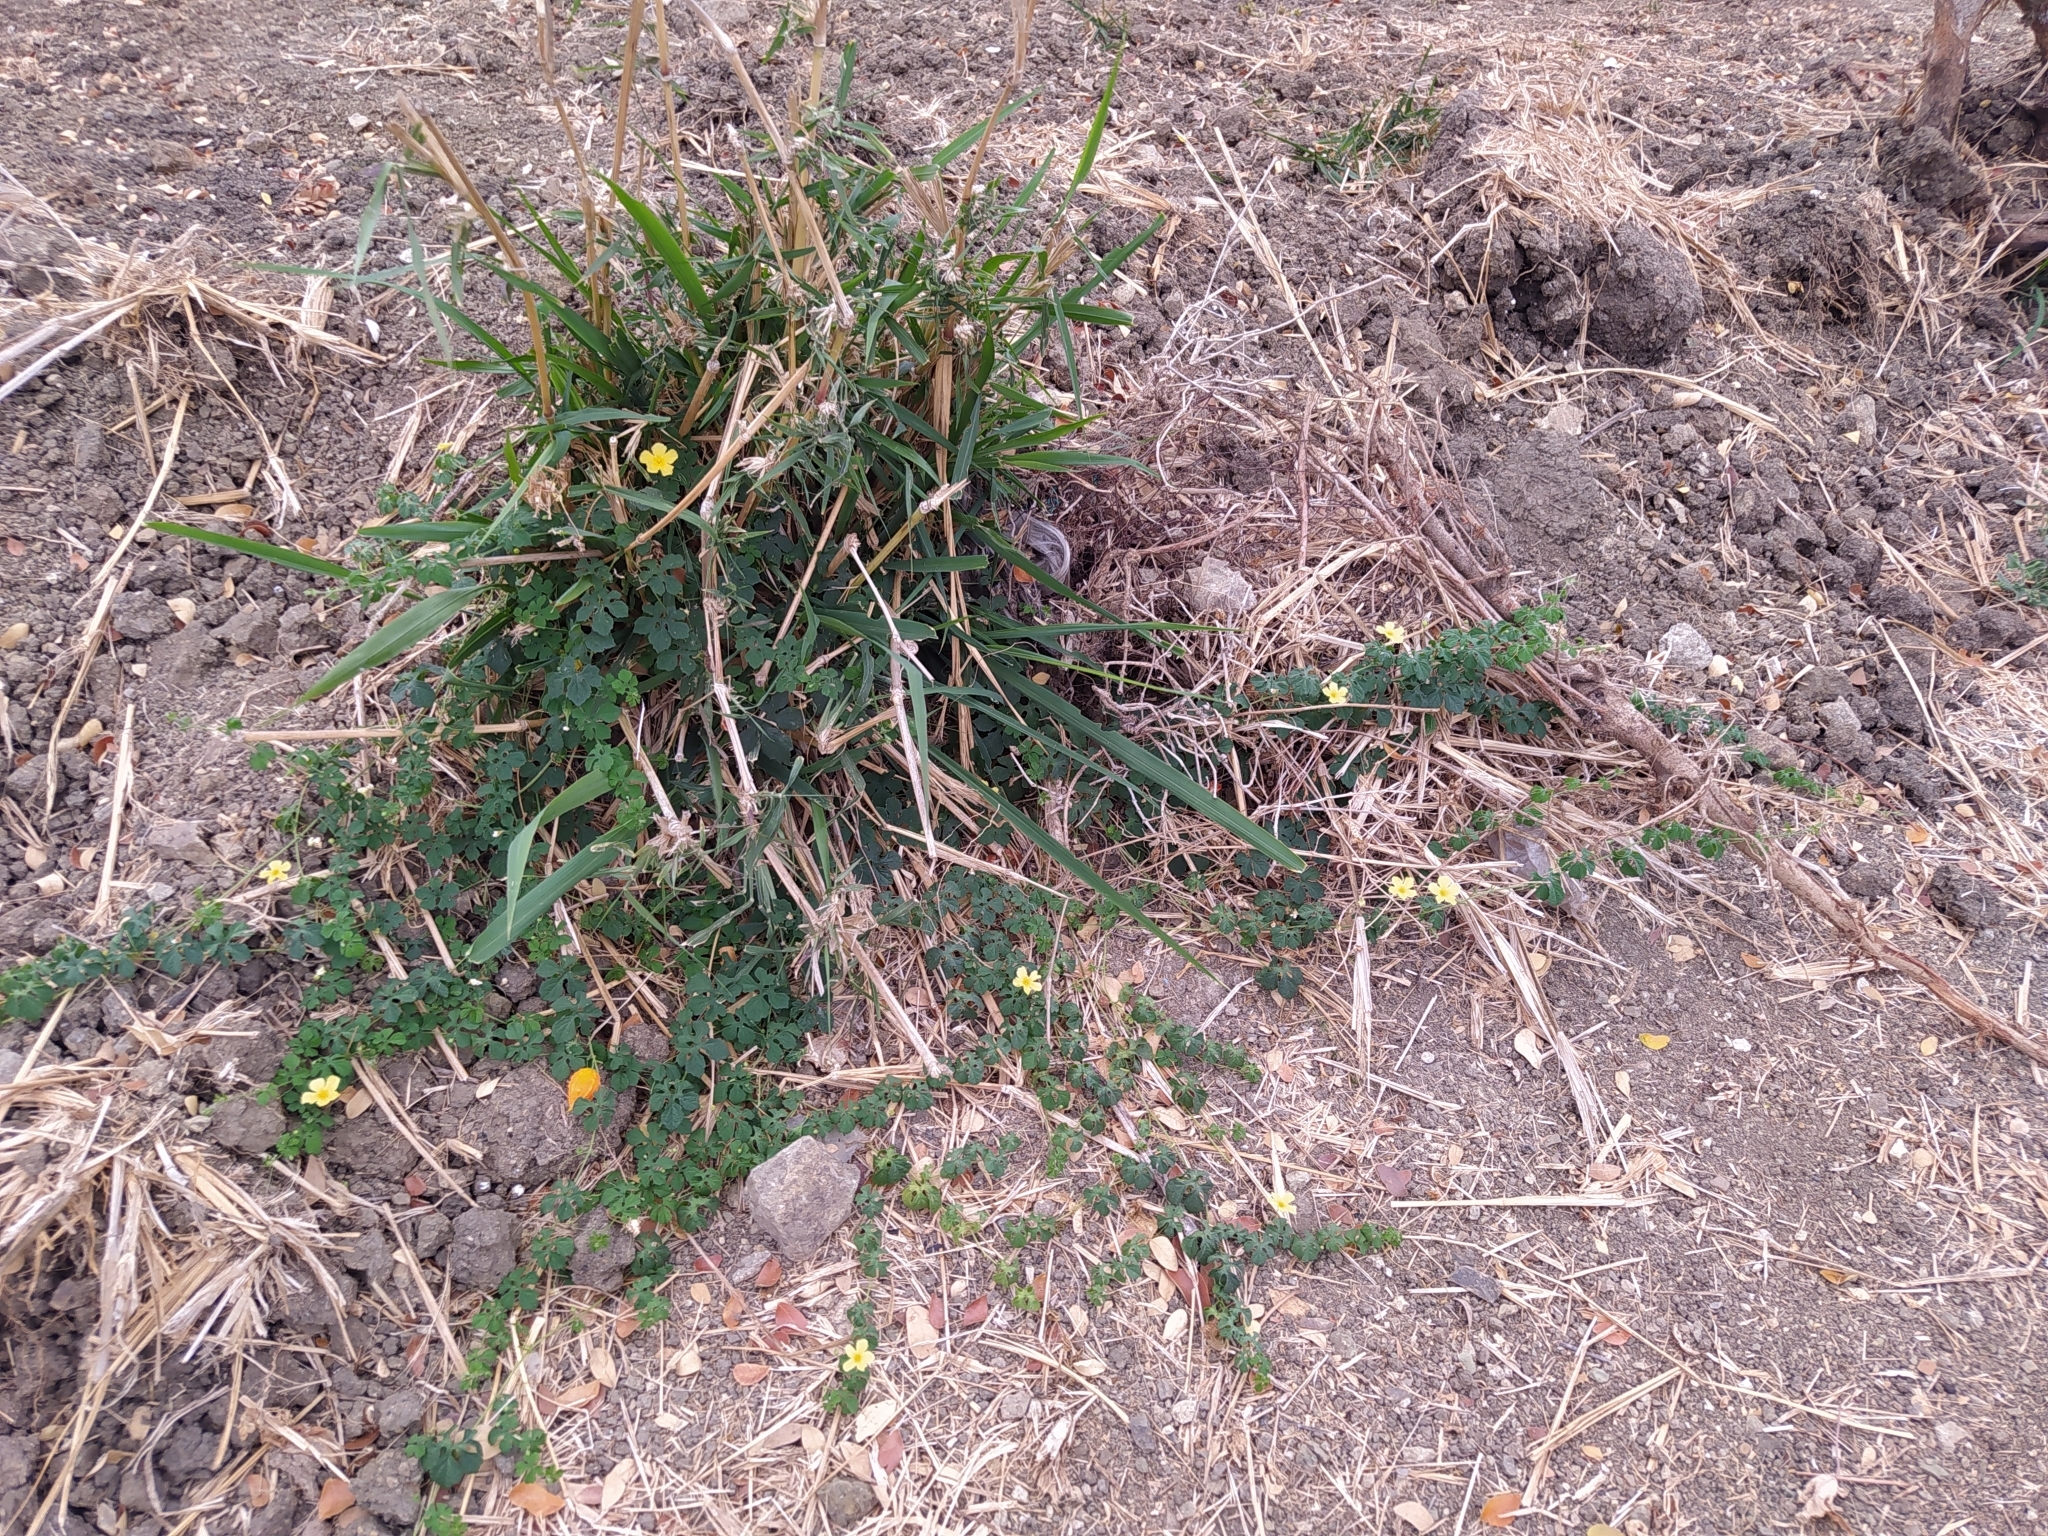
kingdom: Plantae
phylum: Tracheophyta
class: Magnoliopsida
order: Cucurbitales
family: Cucurbitaceae
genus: Momordica
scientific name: Momordica charantia
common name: Balsampear
